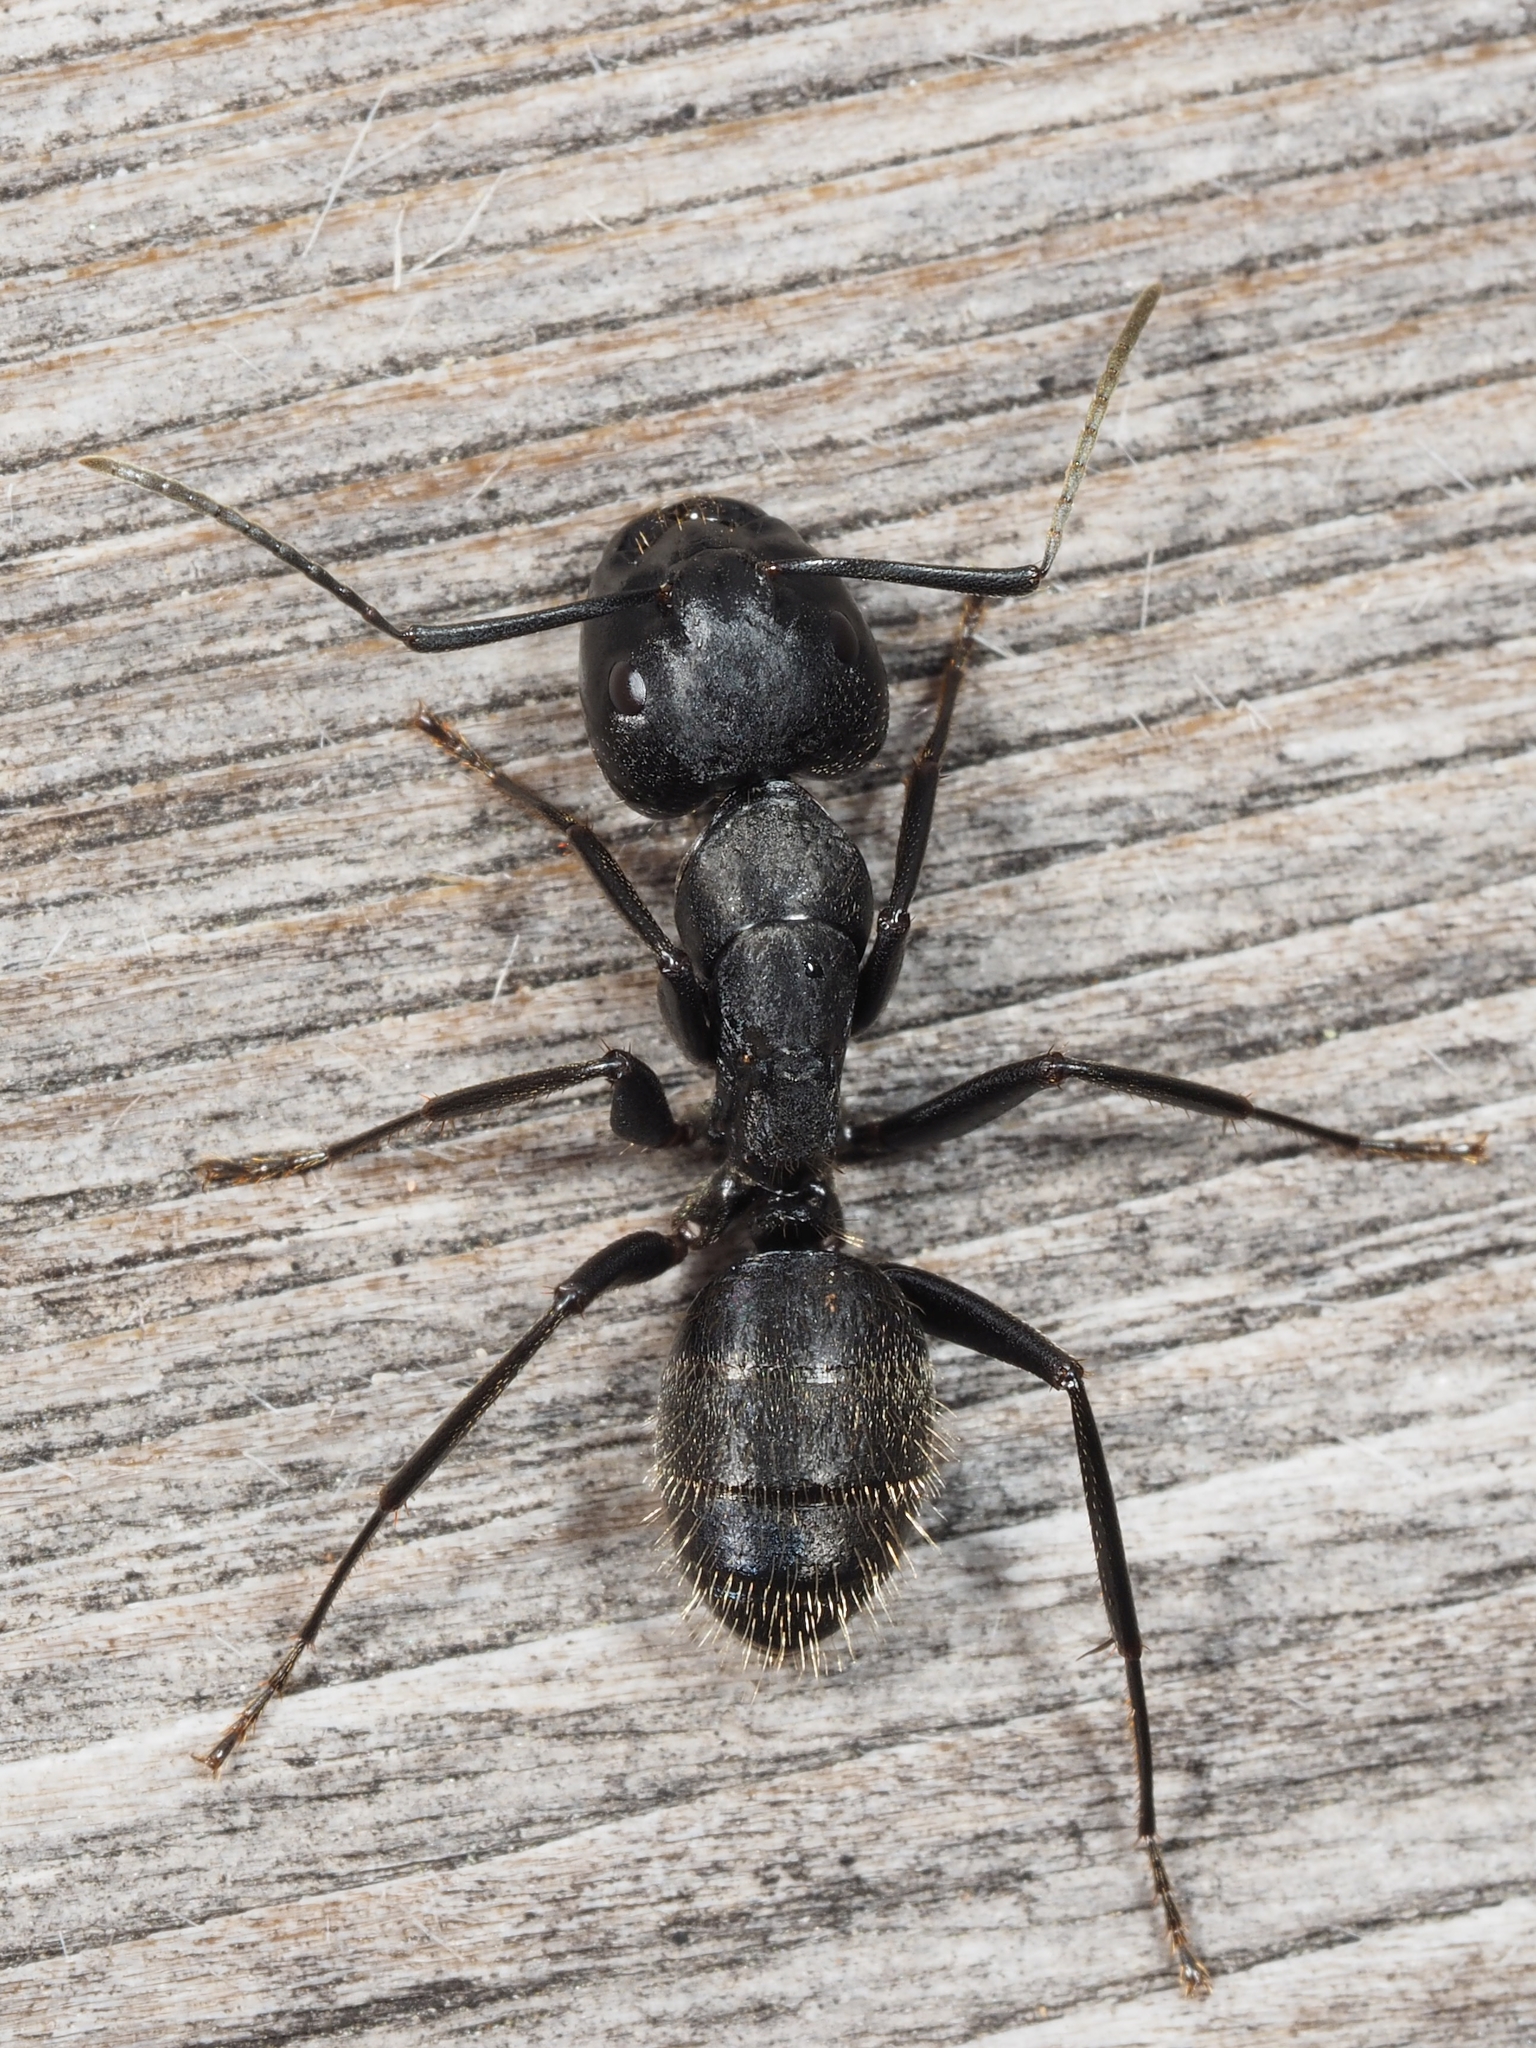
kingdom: Animalia
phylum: Arthropoda
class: Insecta
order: Hymenoptera
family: Formicidae
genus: Camponotus
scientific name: Camponotus vagus
